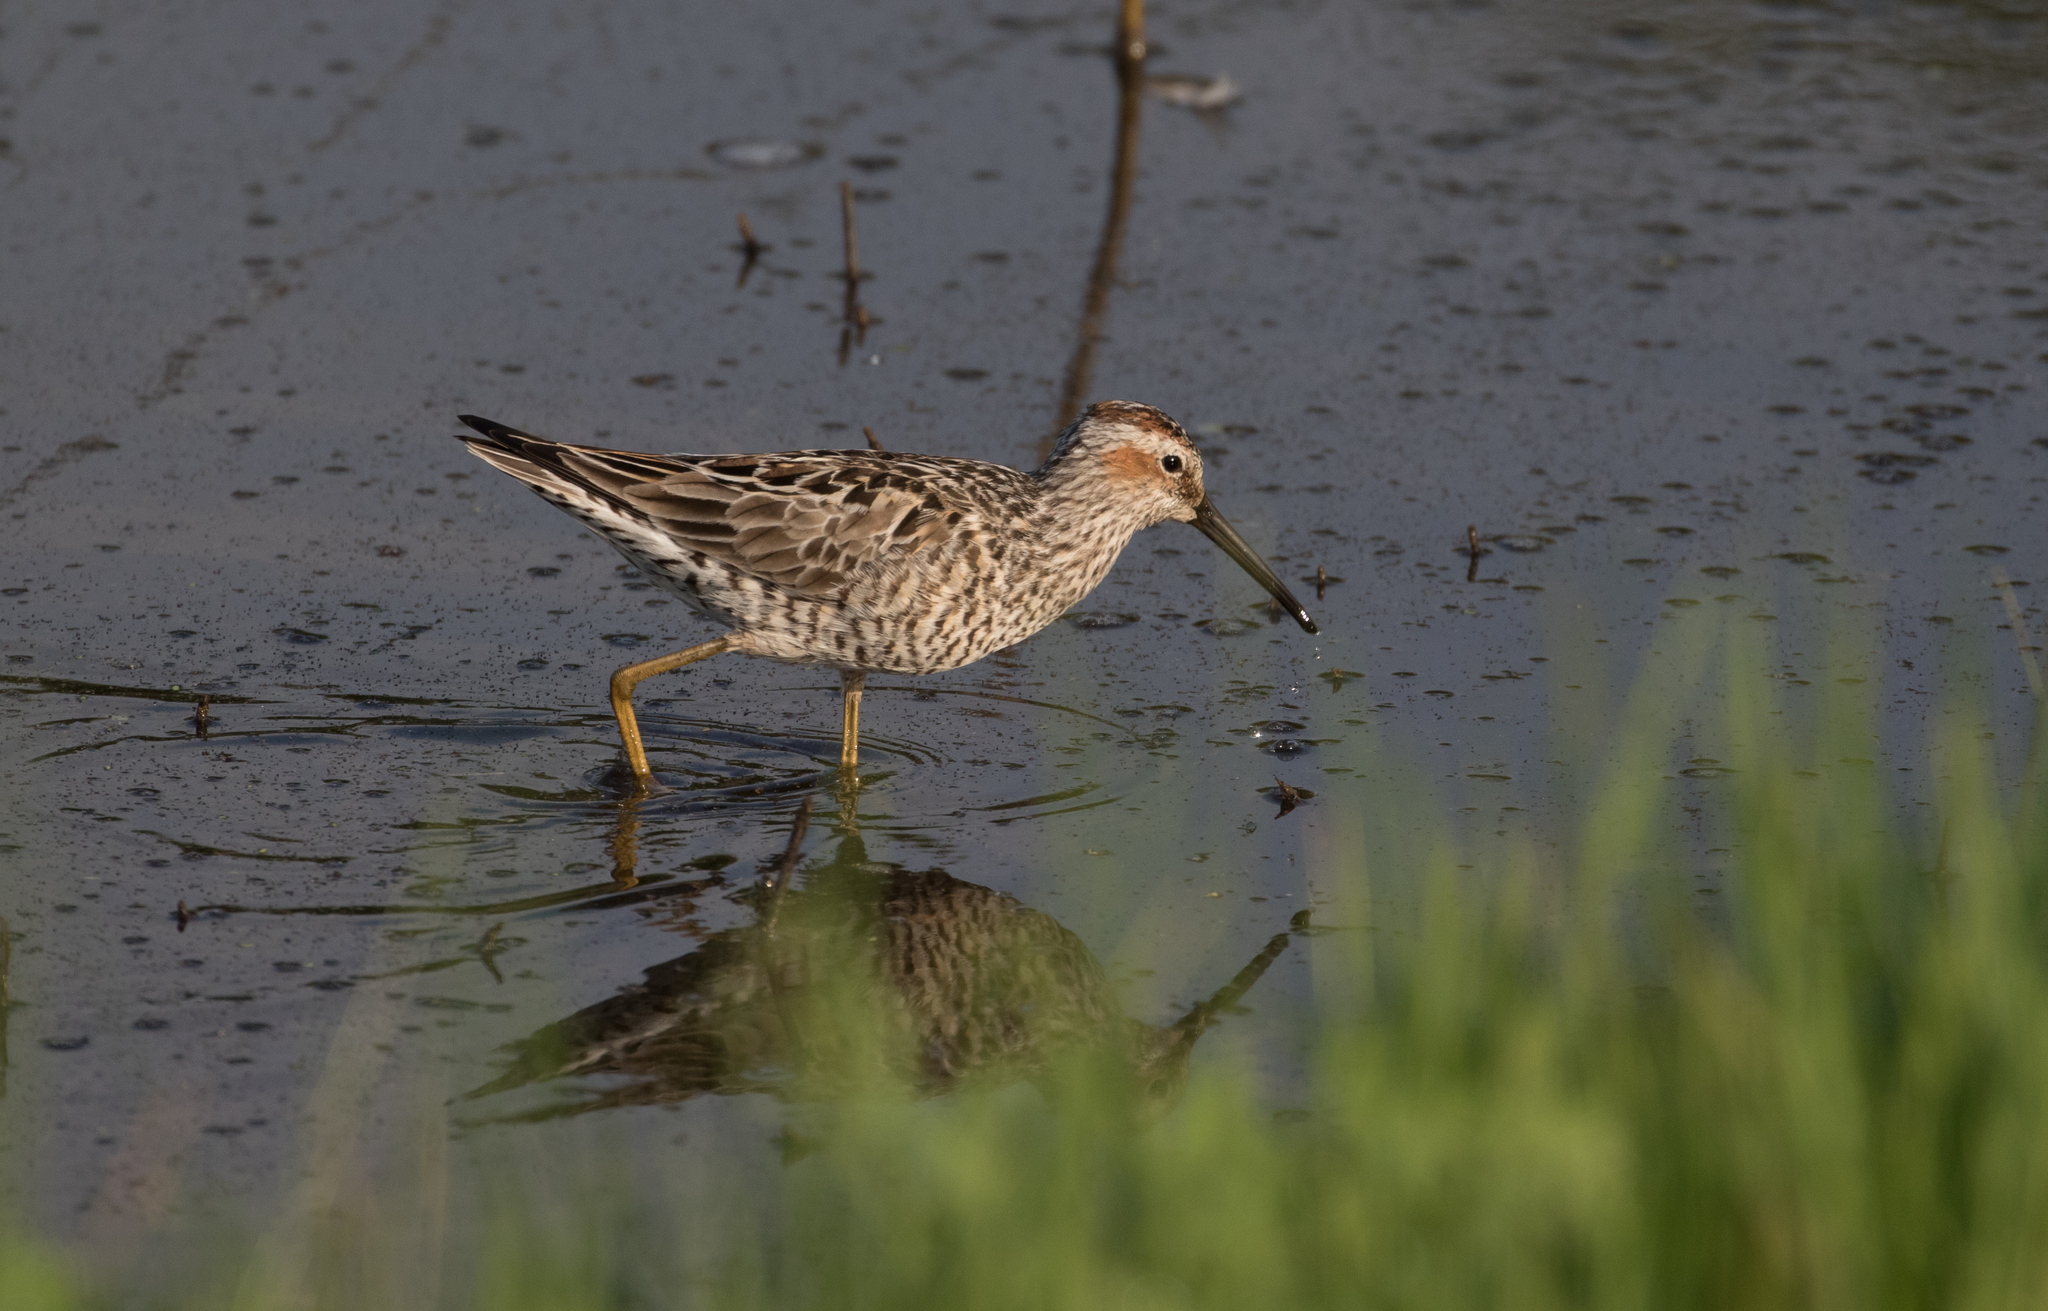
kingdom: Animalia
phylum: Chordata
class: Aves
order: Charadriiformes
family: Scolopacidae
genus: Calidris
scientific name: Calidris himantopus
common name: Stilt sandpiper
